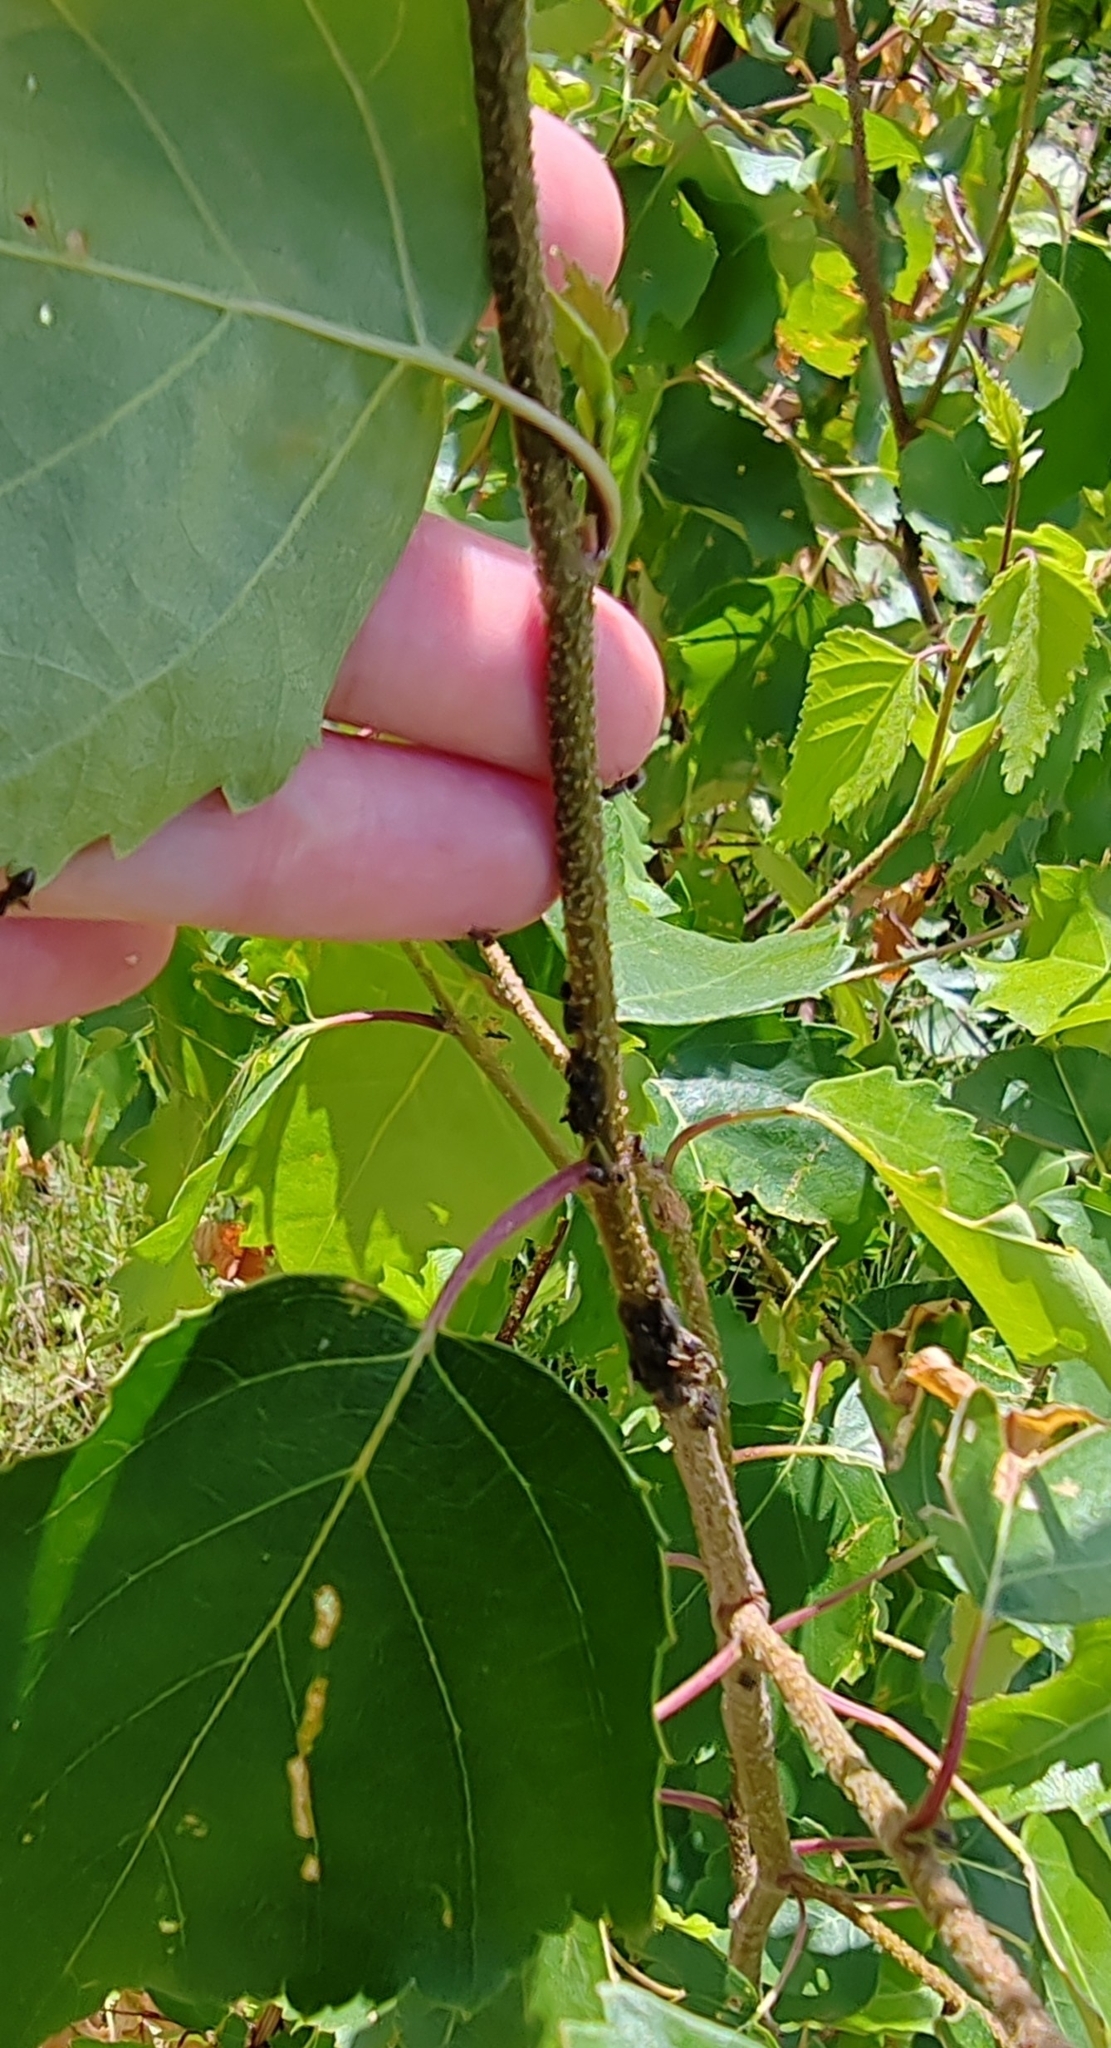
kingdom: Plantae
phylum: Tracheophyta
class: Magnoliopsida
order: Fagales
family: Betulaceae
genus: Betula
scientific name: Betula pendula
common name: Silver birch
